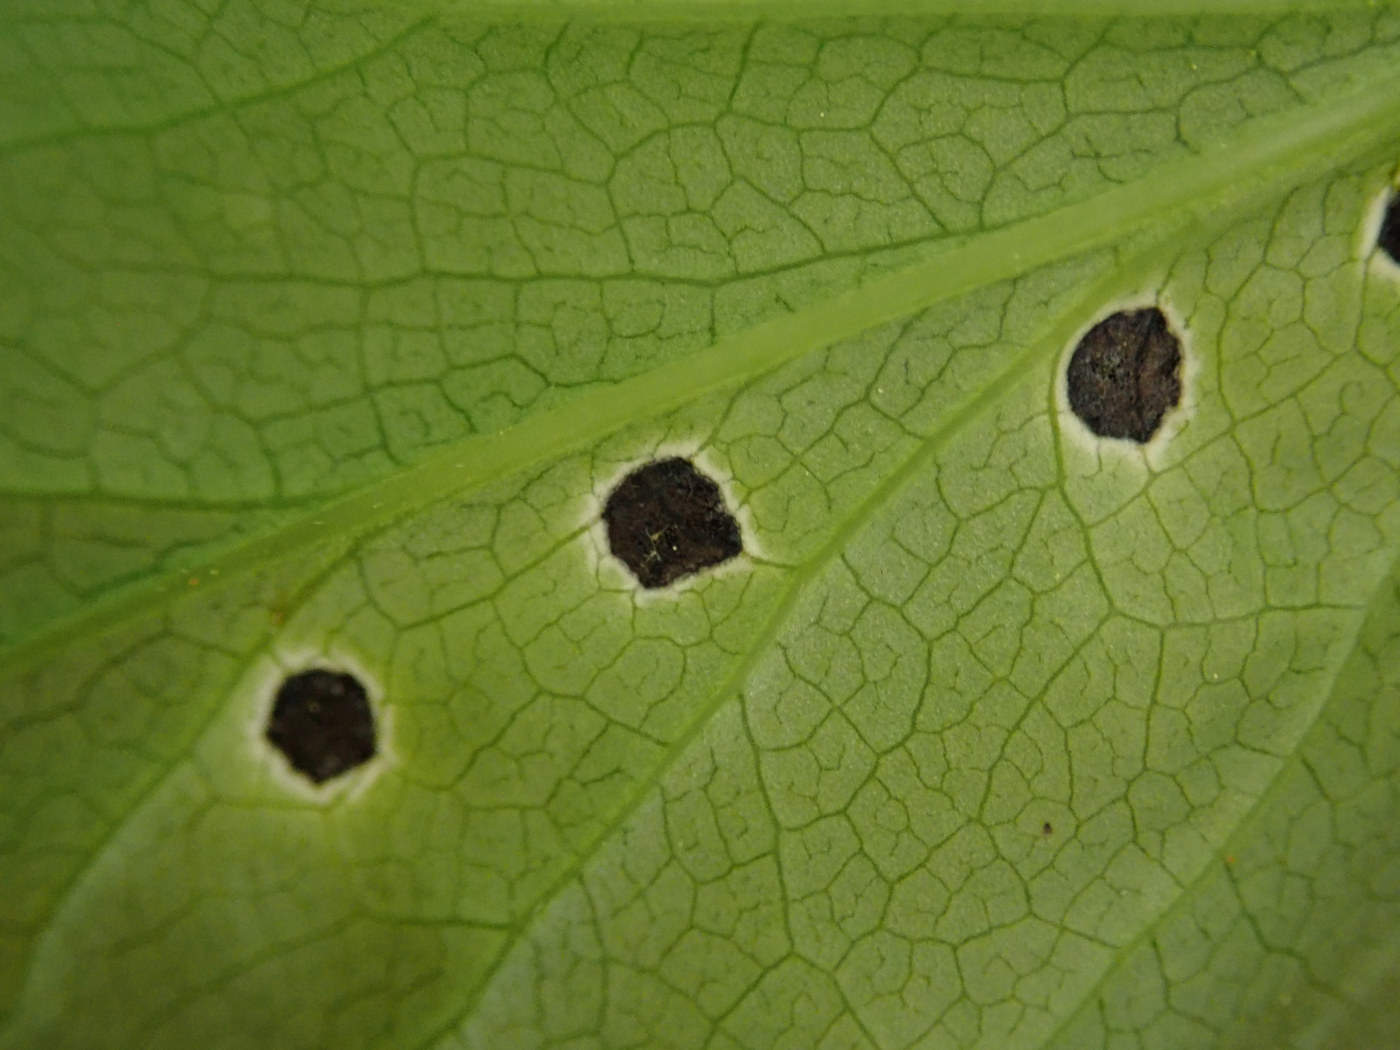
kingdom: Animalia
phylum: Arthropoda
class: Insecta
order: Diptera
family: Cecidomyiidae
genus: Asteromyia
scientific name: Asteromyia carbonifera
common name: Carbonifera goldenrod gall midge
